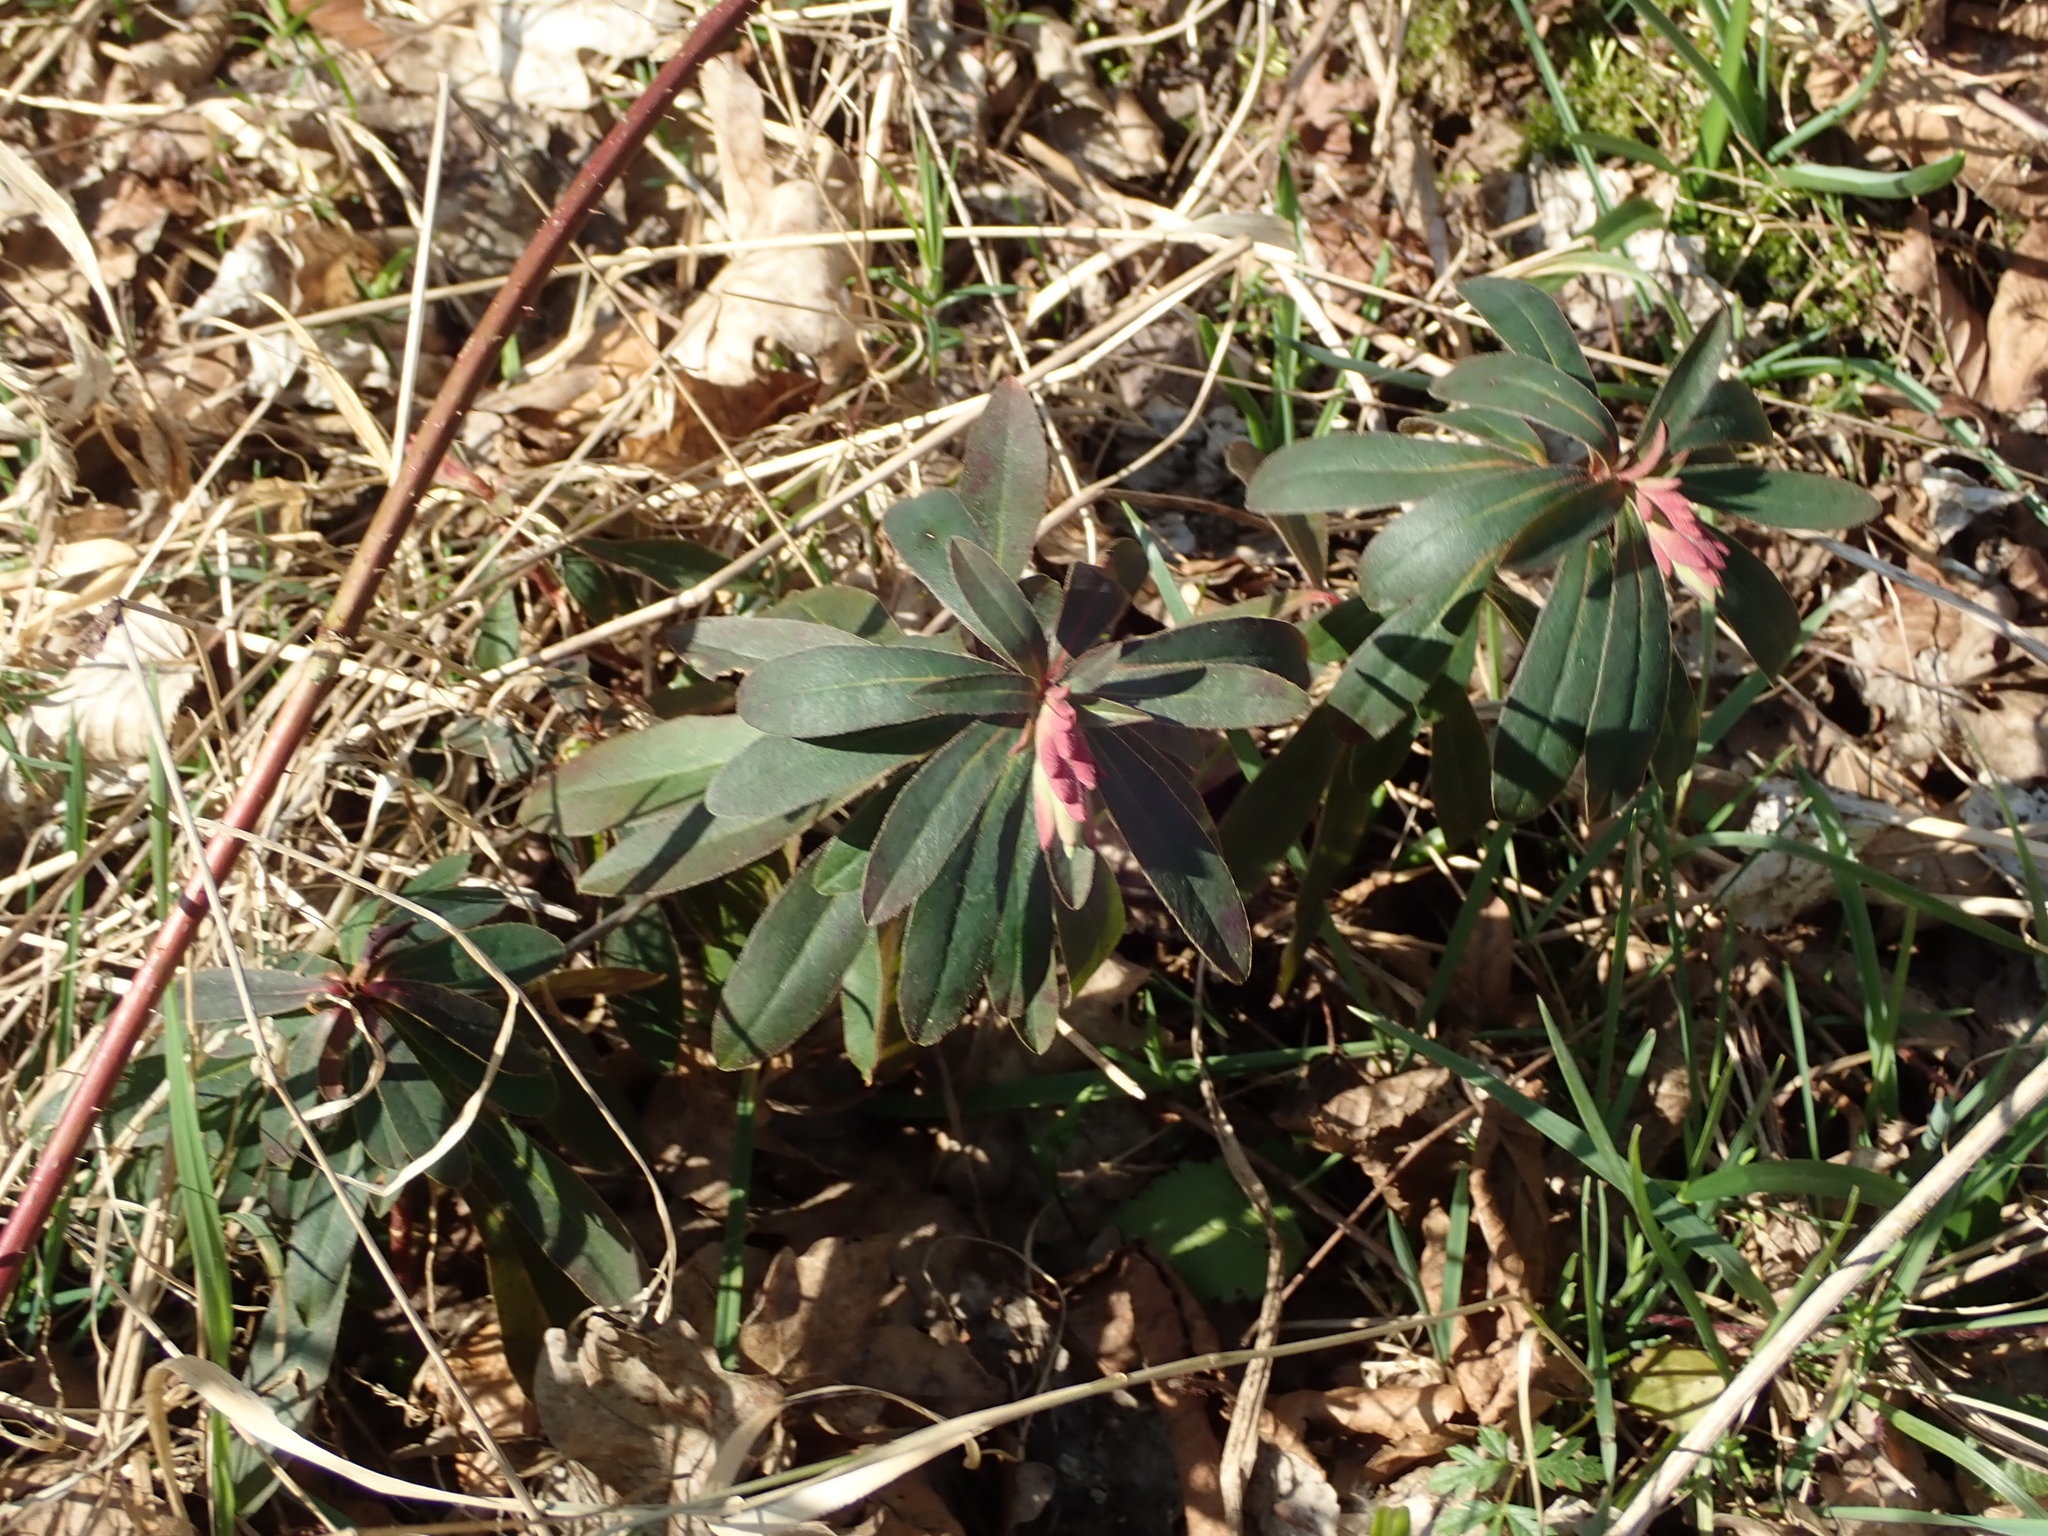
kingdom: Plantae
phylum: Tracheophyta
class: Magnoliopsida
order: Malpighiales
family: Euphorbiaceae
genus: Euphorbia
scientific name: Euphorbia amygdaloides
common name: Wood spurge
